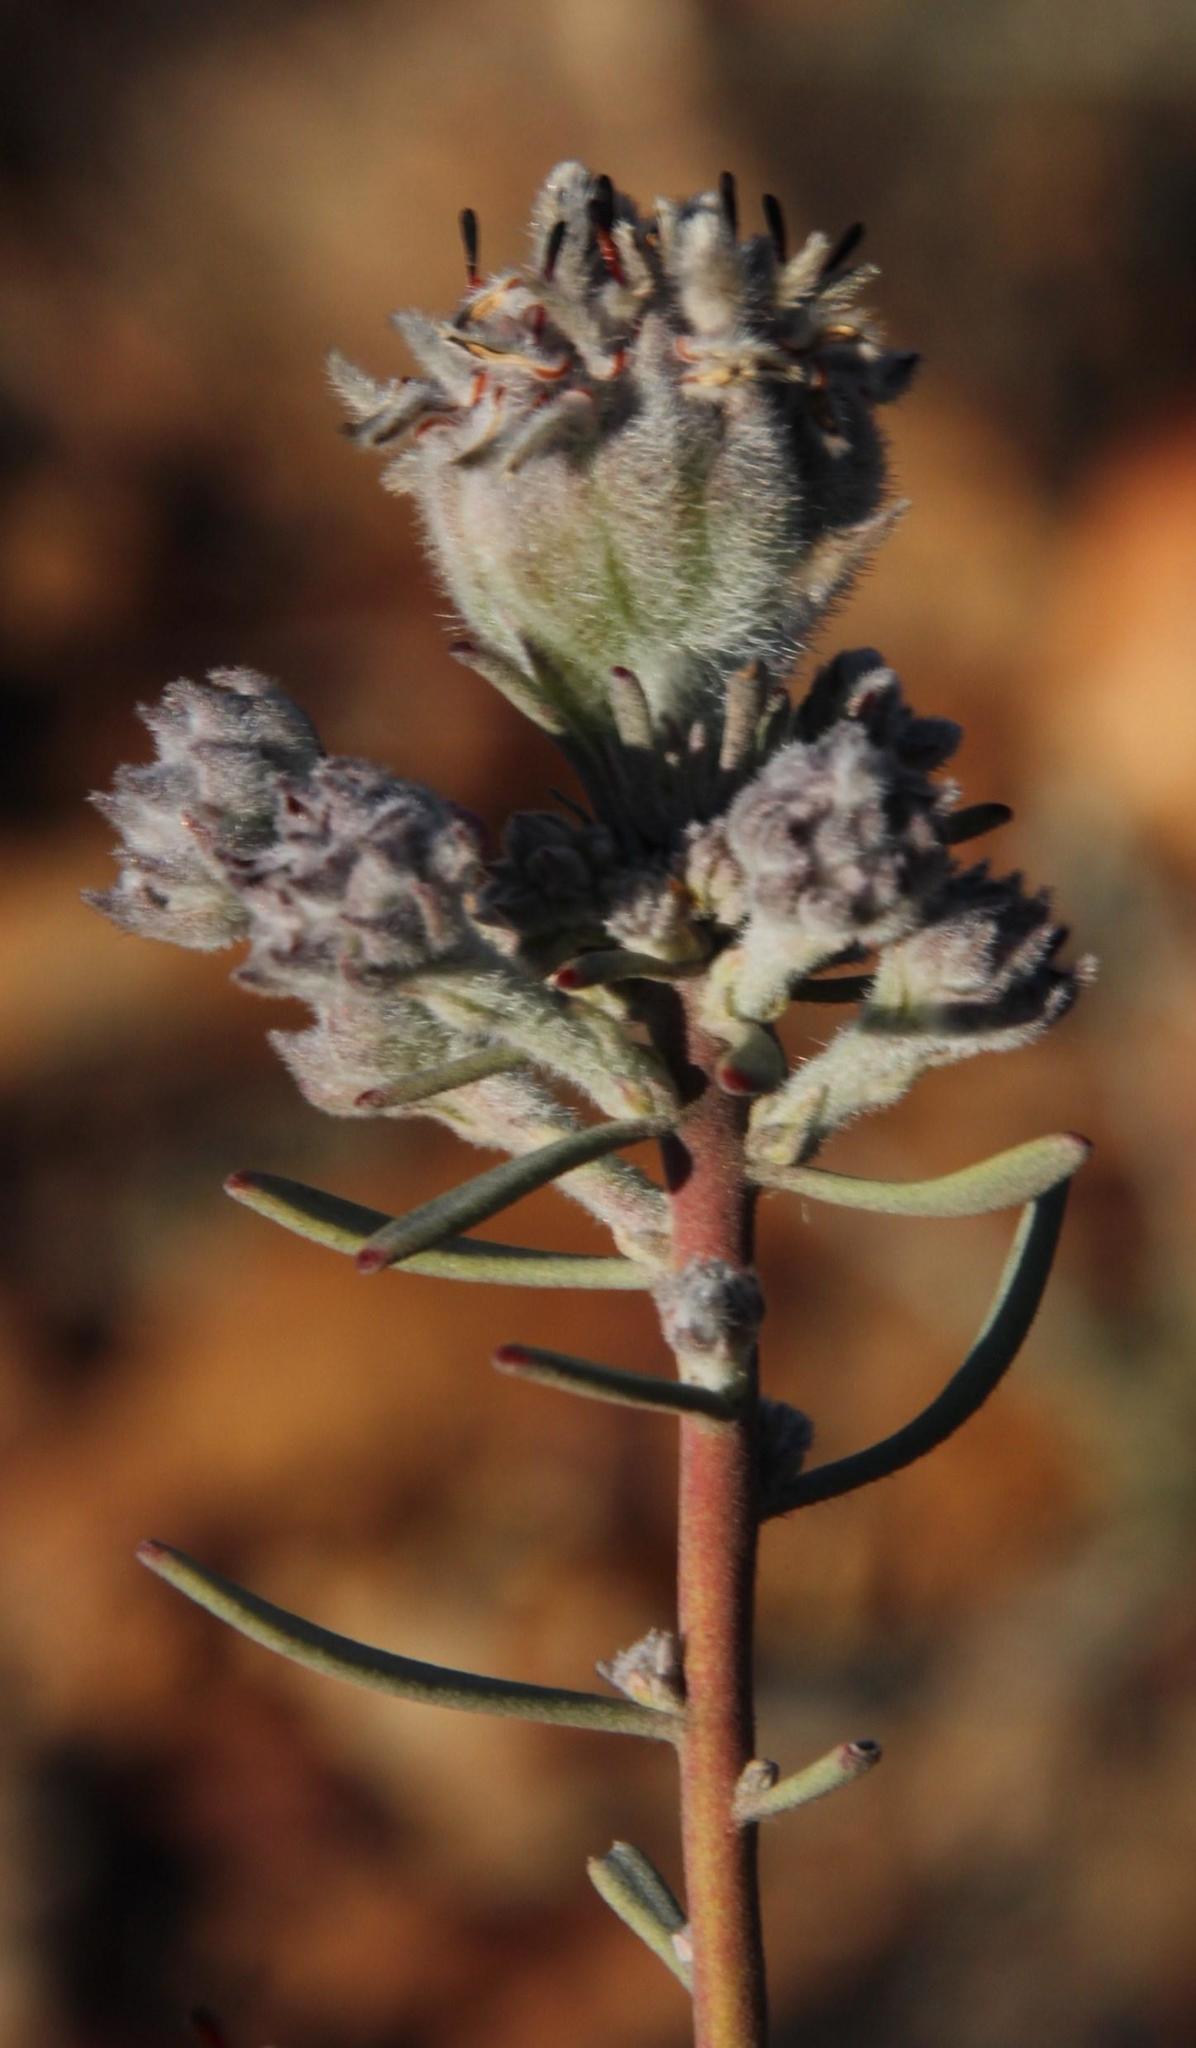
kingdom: Plantae
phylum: Tracheophyta
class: Magnoliopsida
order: Proteales
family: Proteaceae
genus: Vexatorella
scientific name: Vexatorella obtusata
